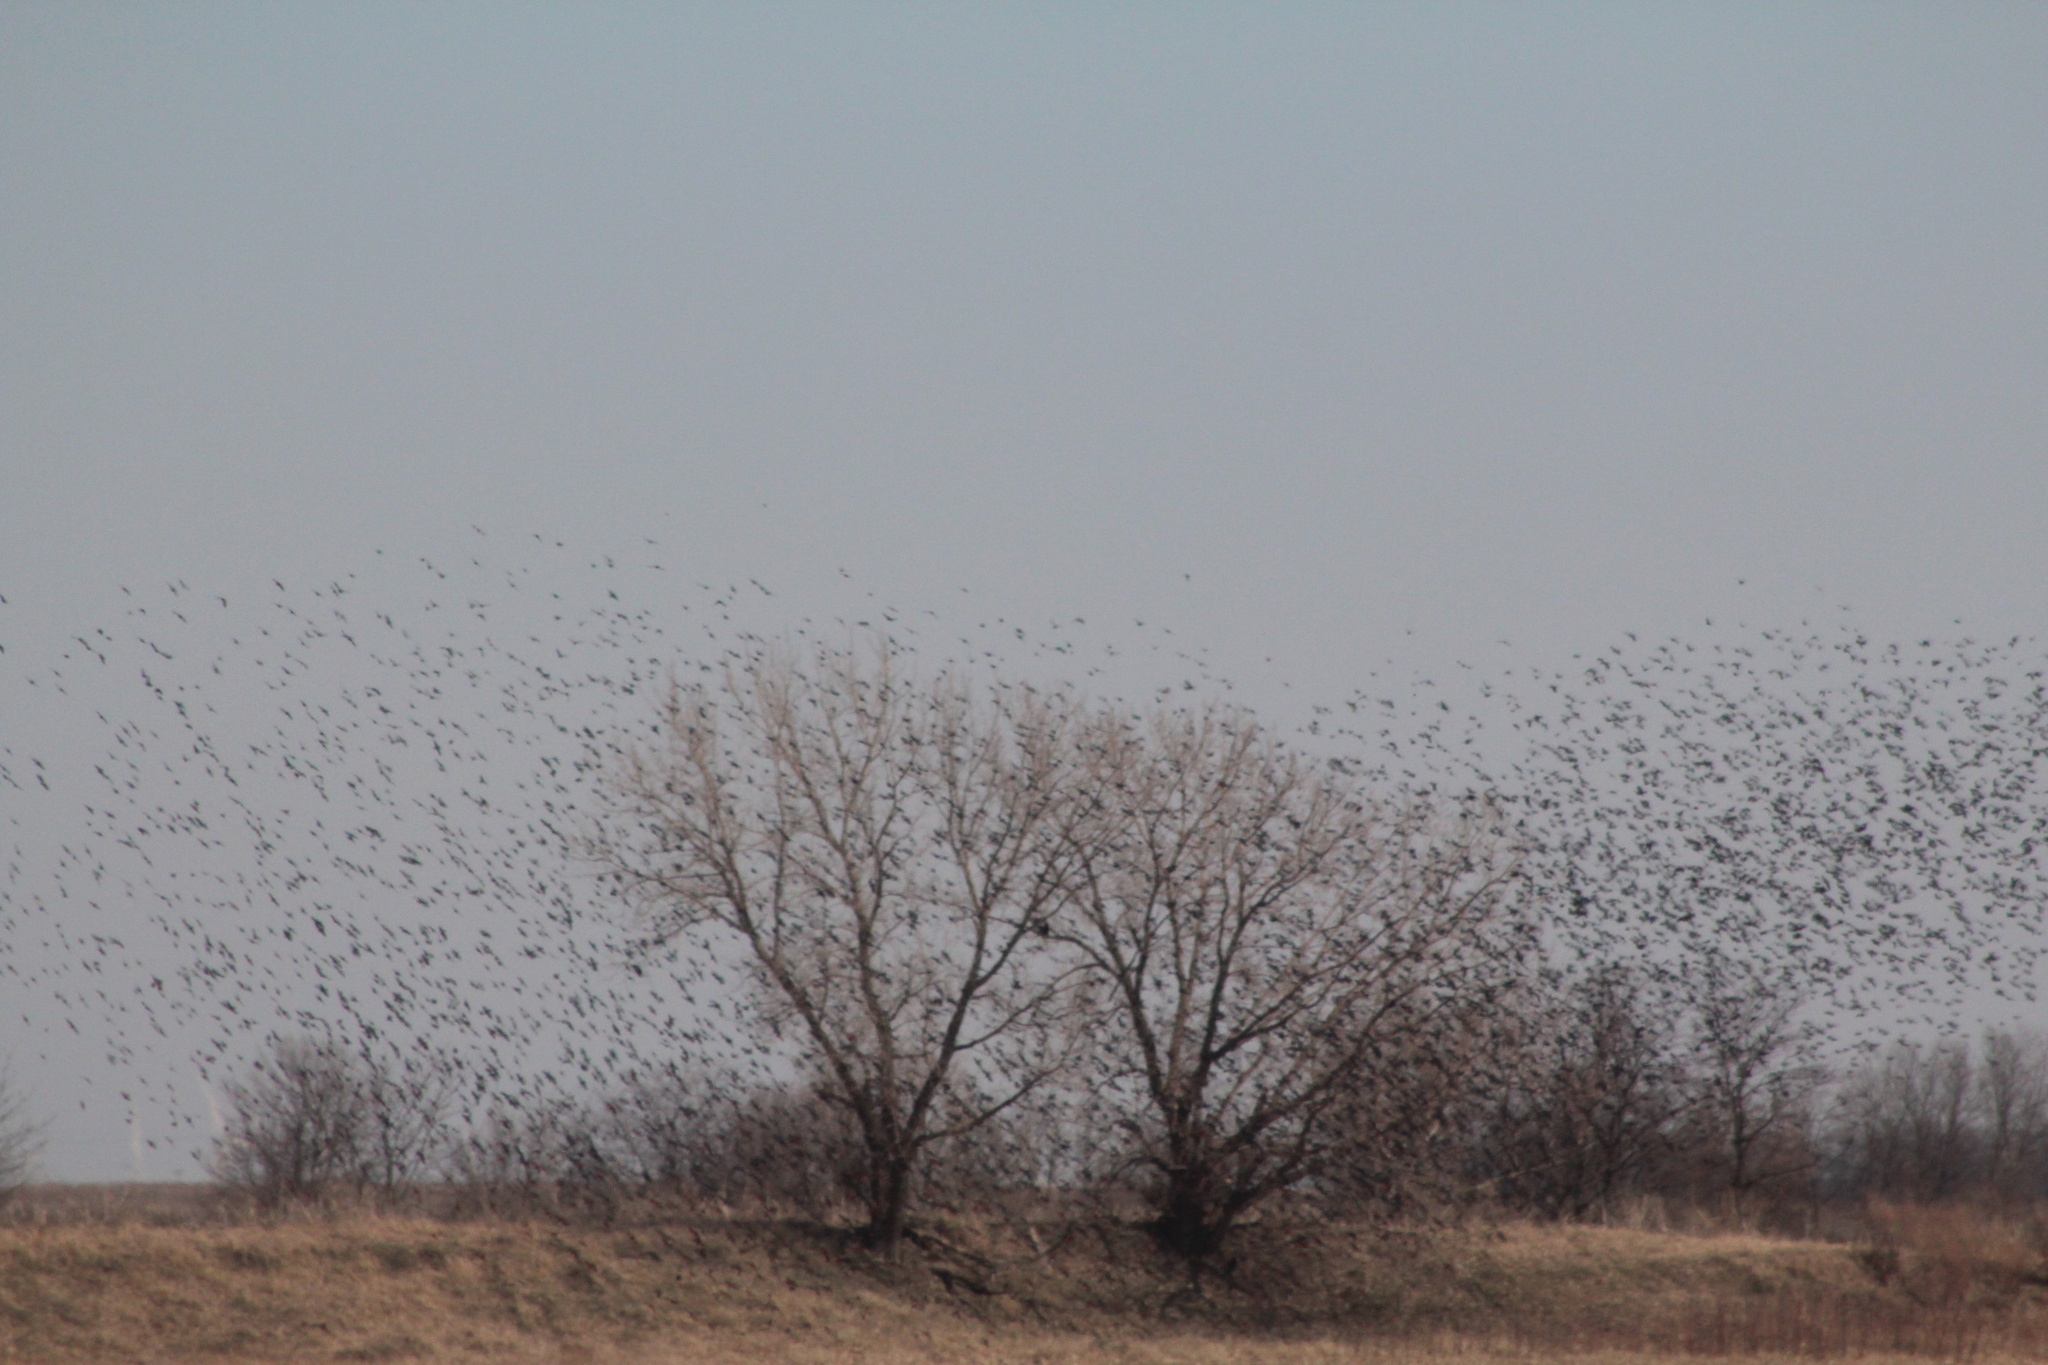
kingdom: Animalia
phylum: Chordata
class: Aves
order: Passeriformes
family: Sturnidae
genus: Sturnus
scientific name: Sturnus vulgaris
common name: Common starling
